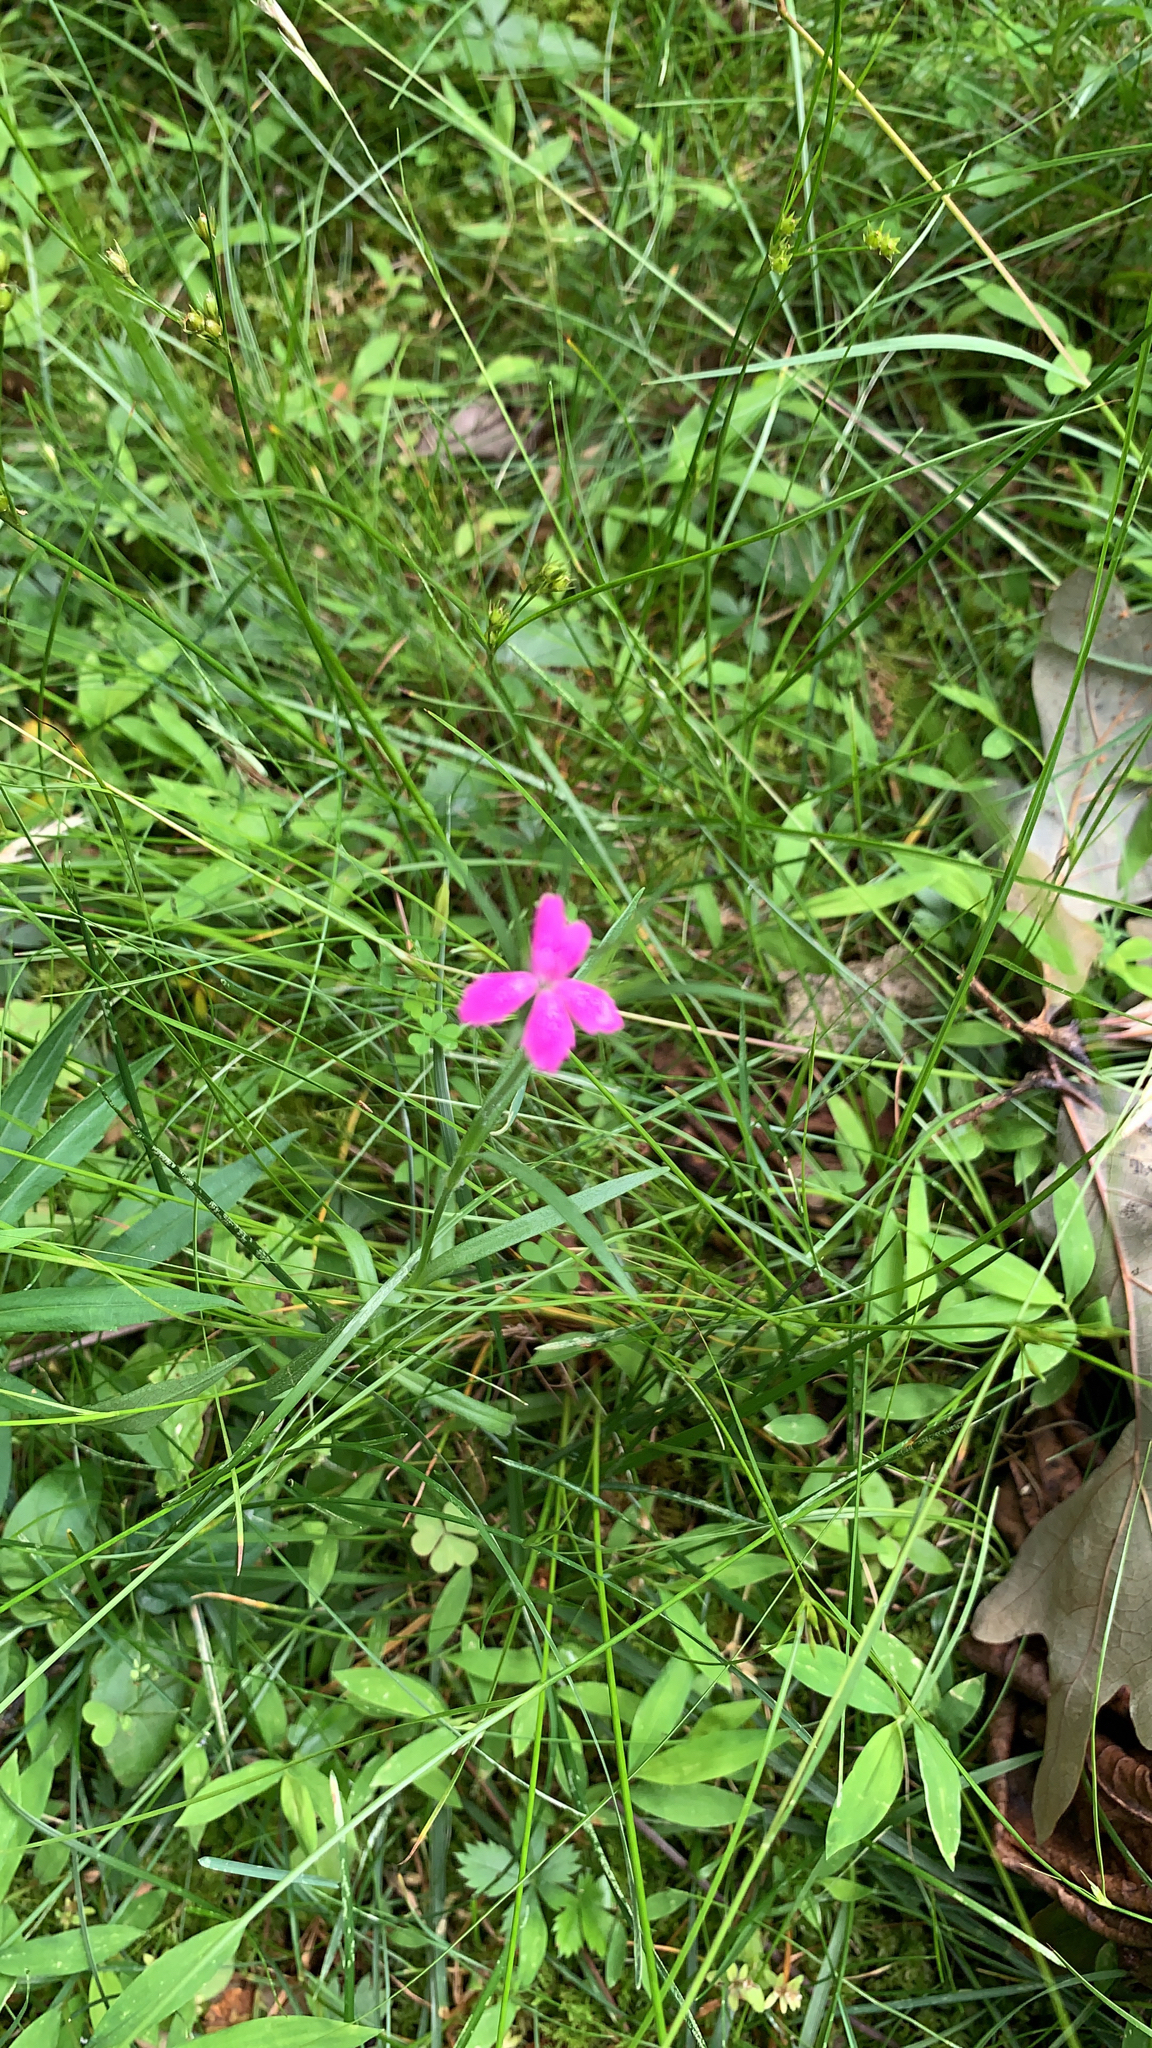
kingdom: Plantae
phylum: Tracheophyta
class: Magnoliopsida
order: Caryophyllales
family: Caryophyllaceae
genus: Dianthus
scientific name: Dianthus armeria
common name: Deptford pink
